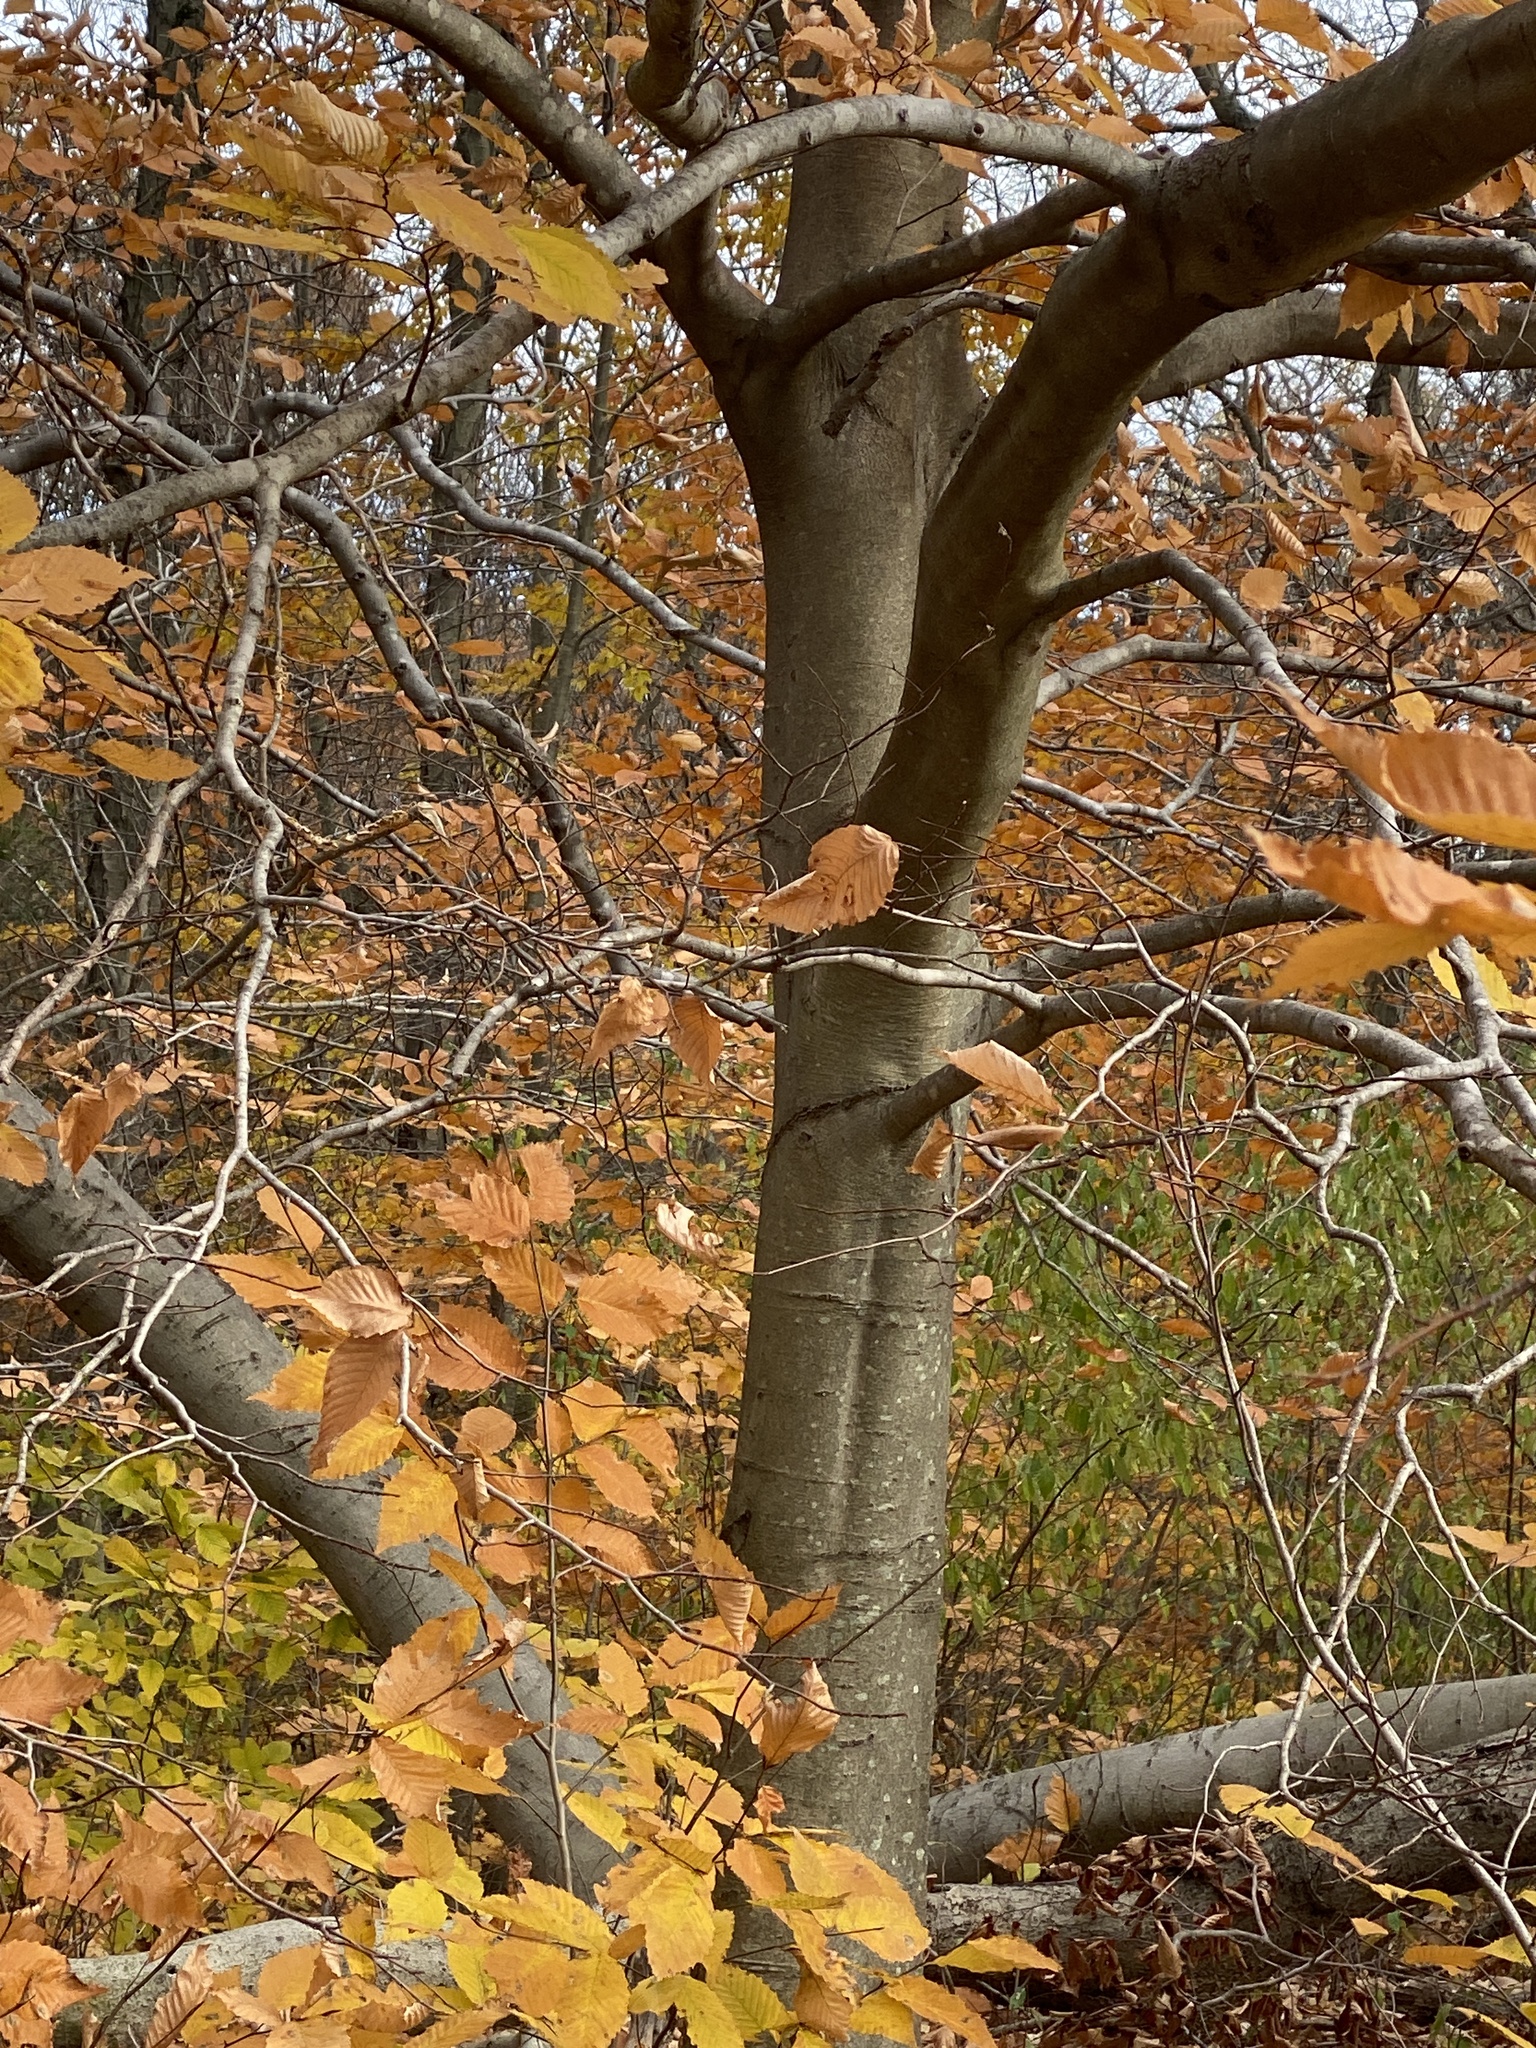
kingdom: Plantae
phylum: Tracheophyta
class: Magnoliopsida
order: Fagales
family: Fagaceae
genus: Fagus
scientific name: Fagus grandifolia
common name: American beech
